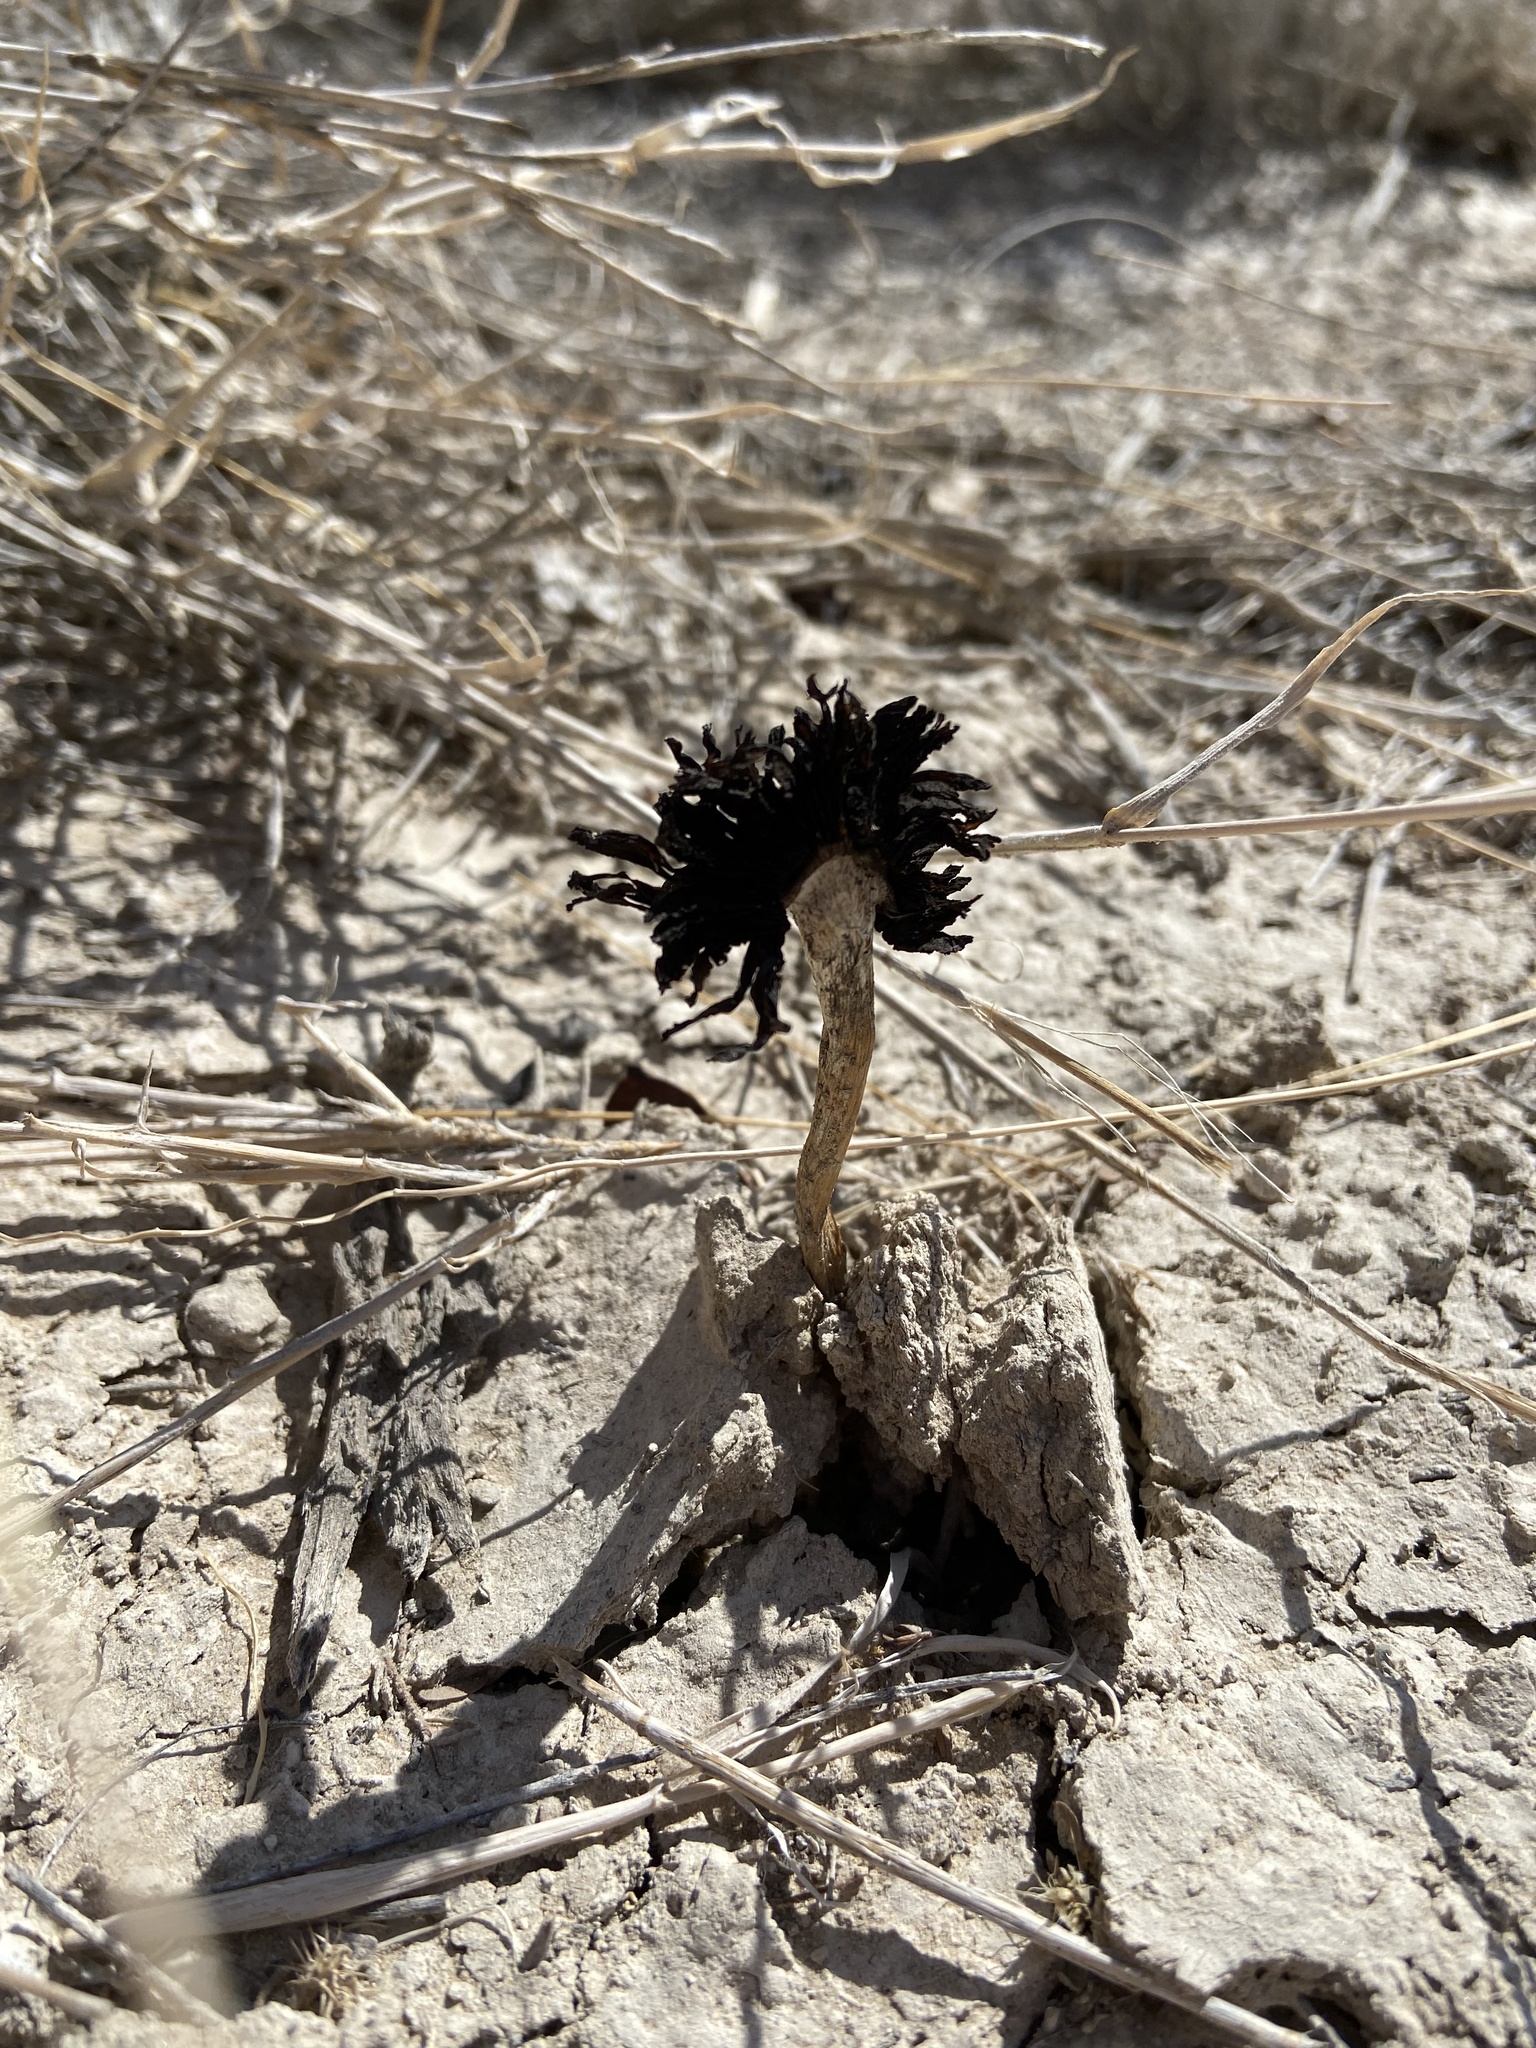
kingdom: Fungi
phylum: Basidiomycota
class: Agaricomycetes
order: Agaricales
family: Agaricaceae
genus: Montagnea
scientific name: Montagnea arenaria
